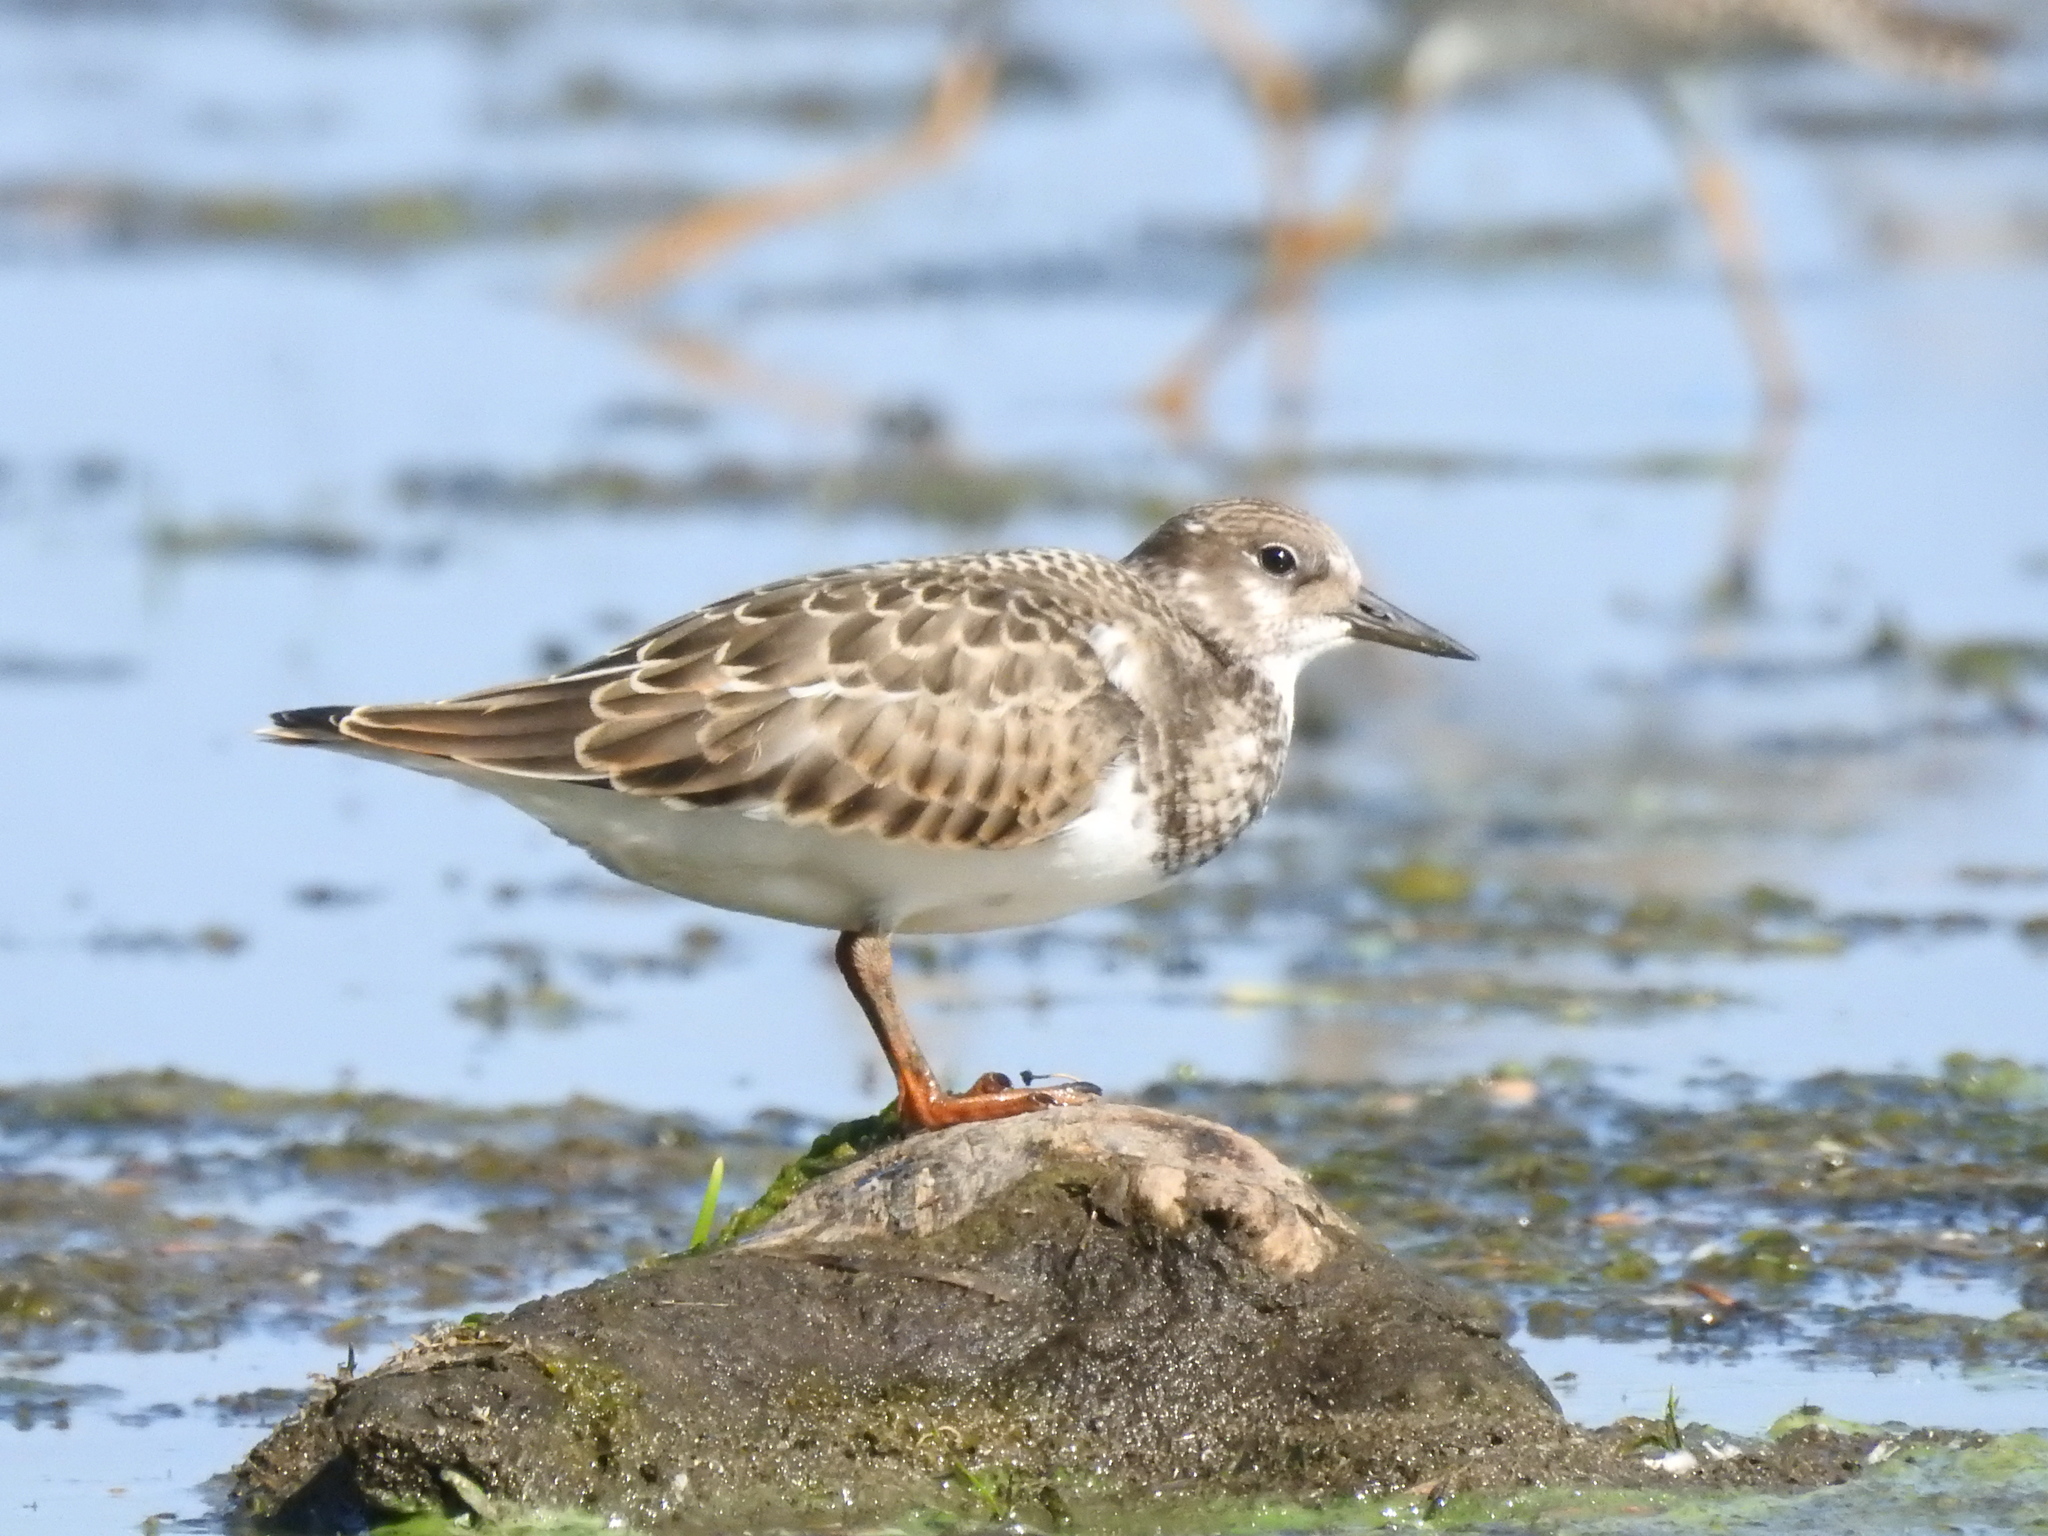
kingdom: Animalia
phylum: Chordata
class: Aves
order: Charadriiformes
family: Scolopacidae
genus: Arenaria
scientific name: Arenaria interpres
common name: Ruddy turnstone
